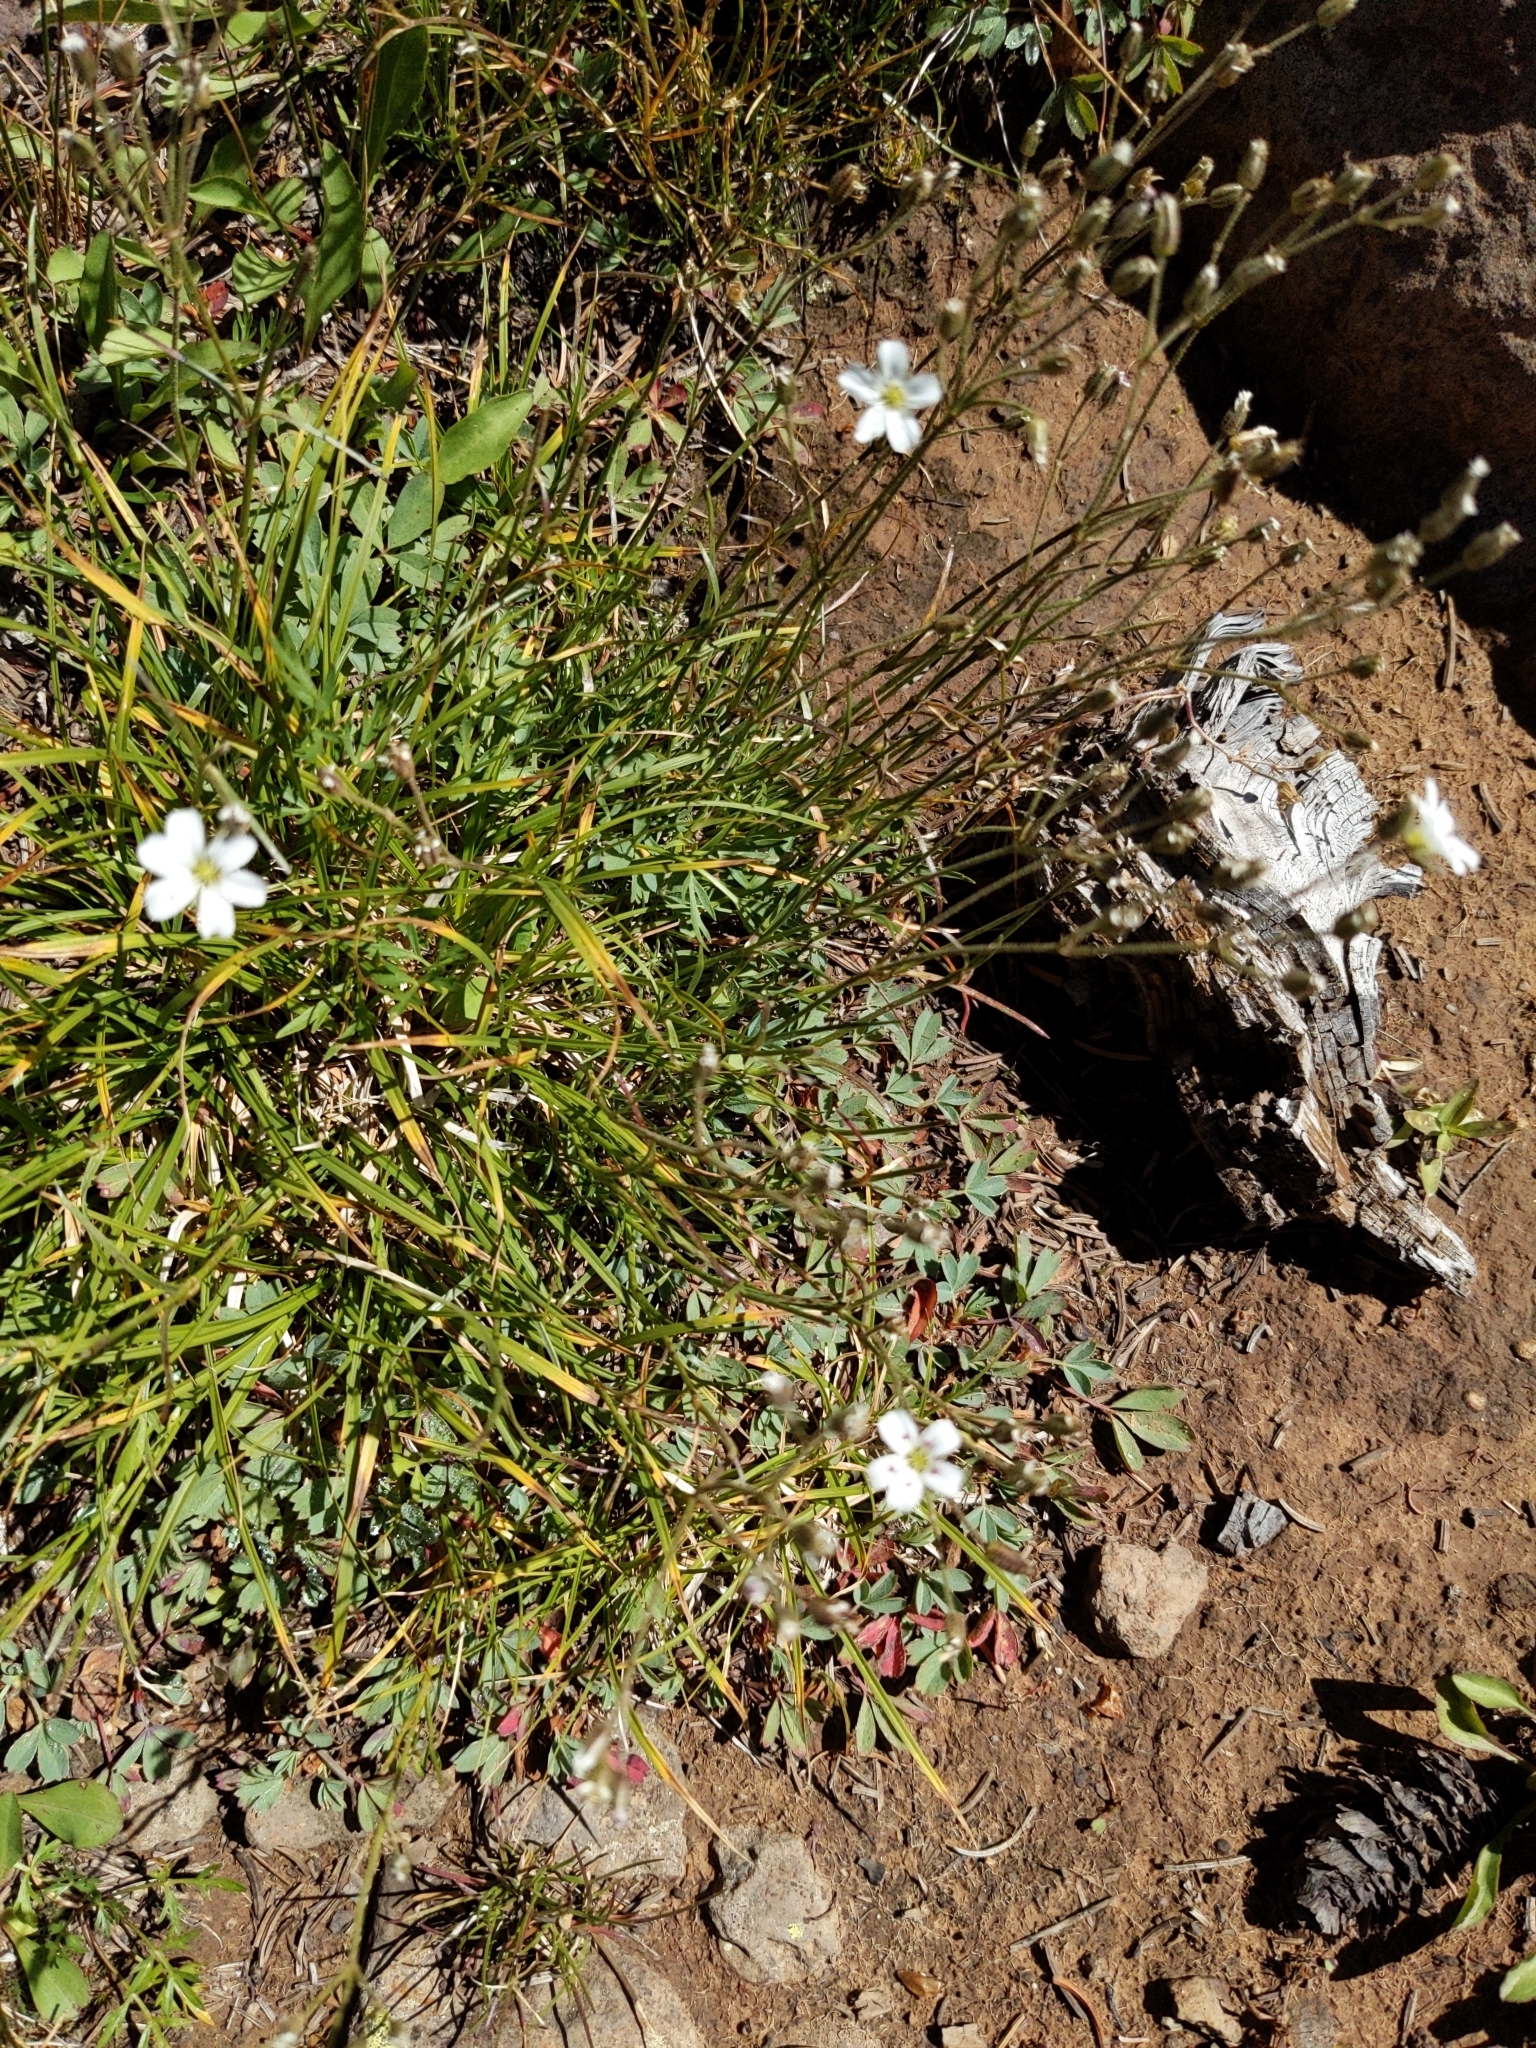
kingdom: Plantae
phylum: Tracheophyta
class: Magnoliopsida
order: Caryophyllales
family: Caryophyllaceae
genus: Eremogone
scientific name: Eremogone fendleri
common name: Fendler's sandwort
